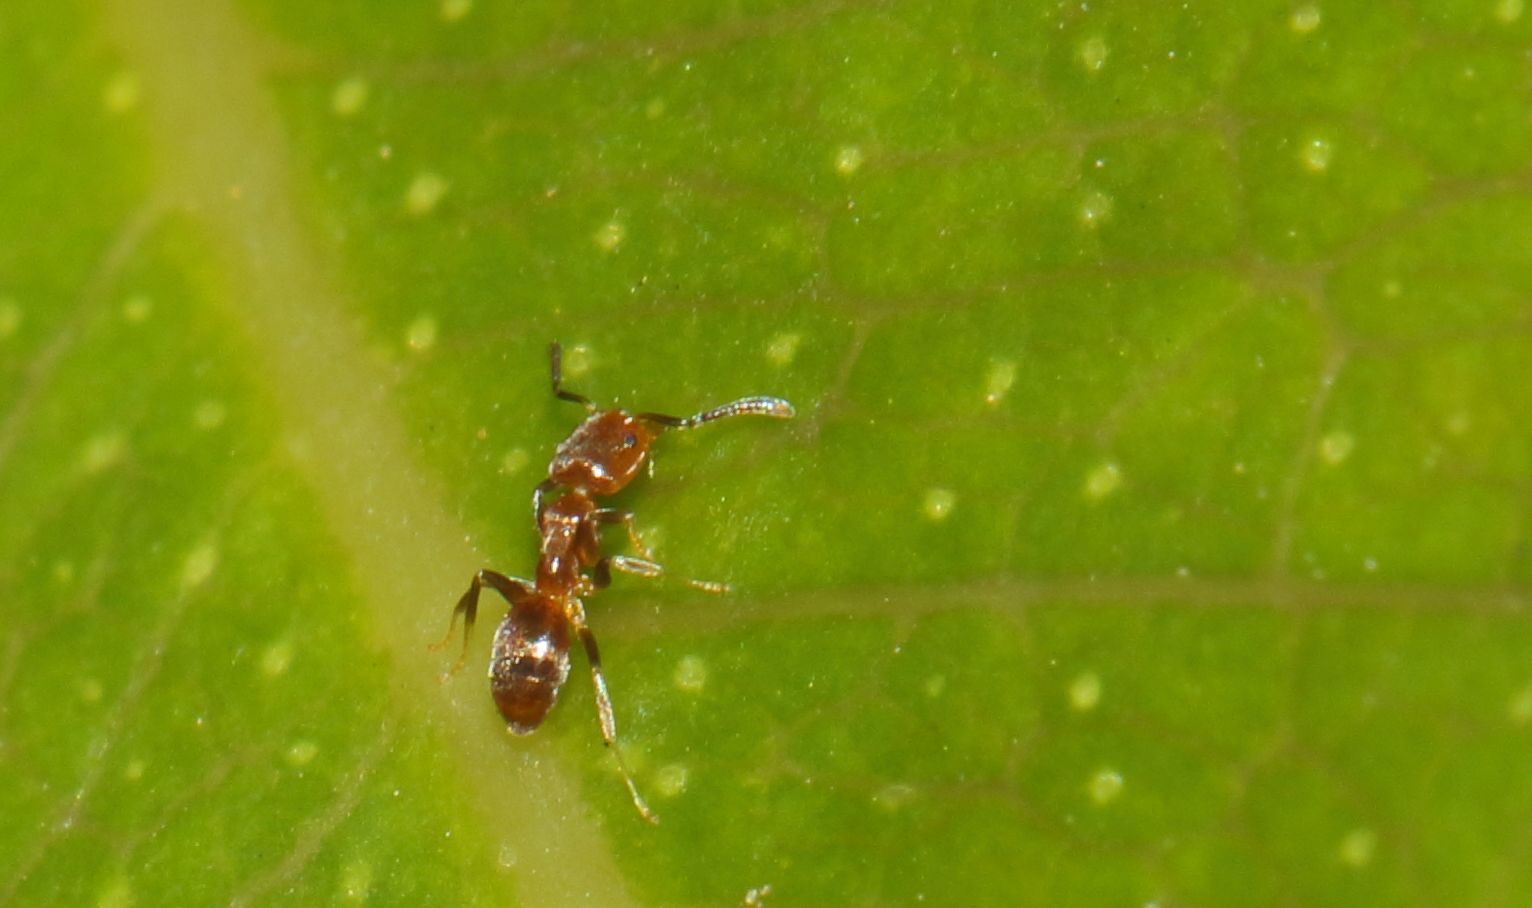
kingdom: Animalia
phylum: Arthropoda
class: Insecta
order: Hymenoptera
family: Formicidae
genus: Linepithema
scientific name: Linepithema humile
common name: Argentine ant
